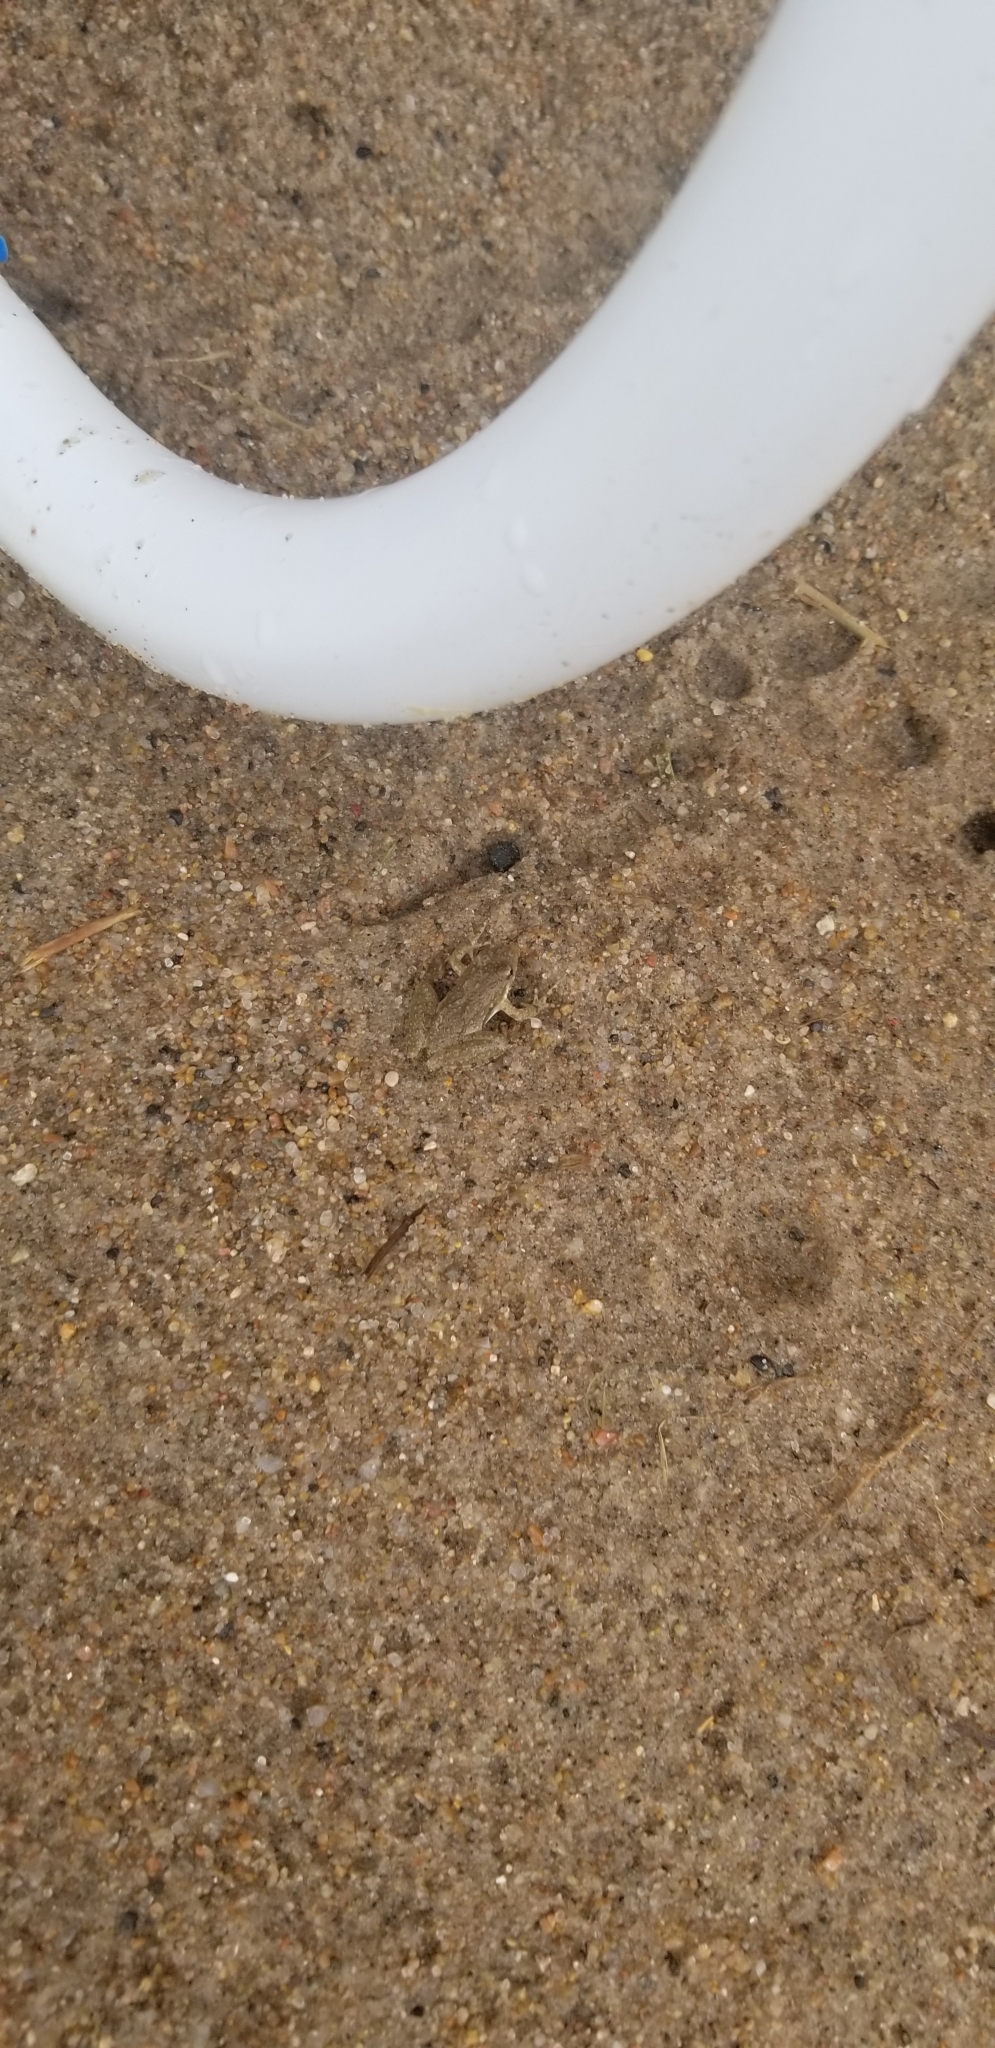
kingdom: Animalia
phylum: Chordata
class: Amphibia
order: Anura
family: Hylidae
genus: Acris
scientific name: Acris blanchardi
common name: Blanchard's cricket frog
